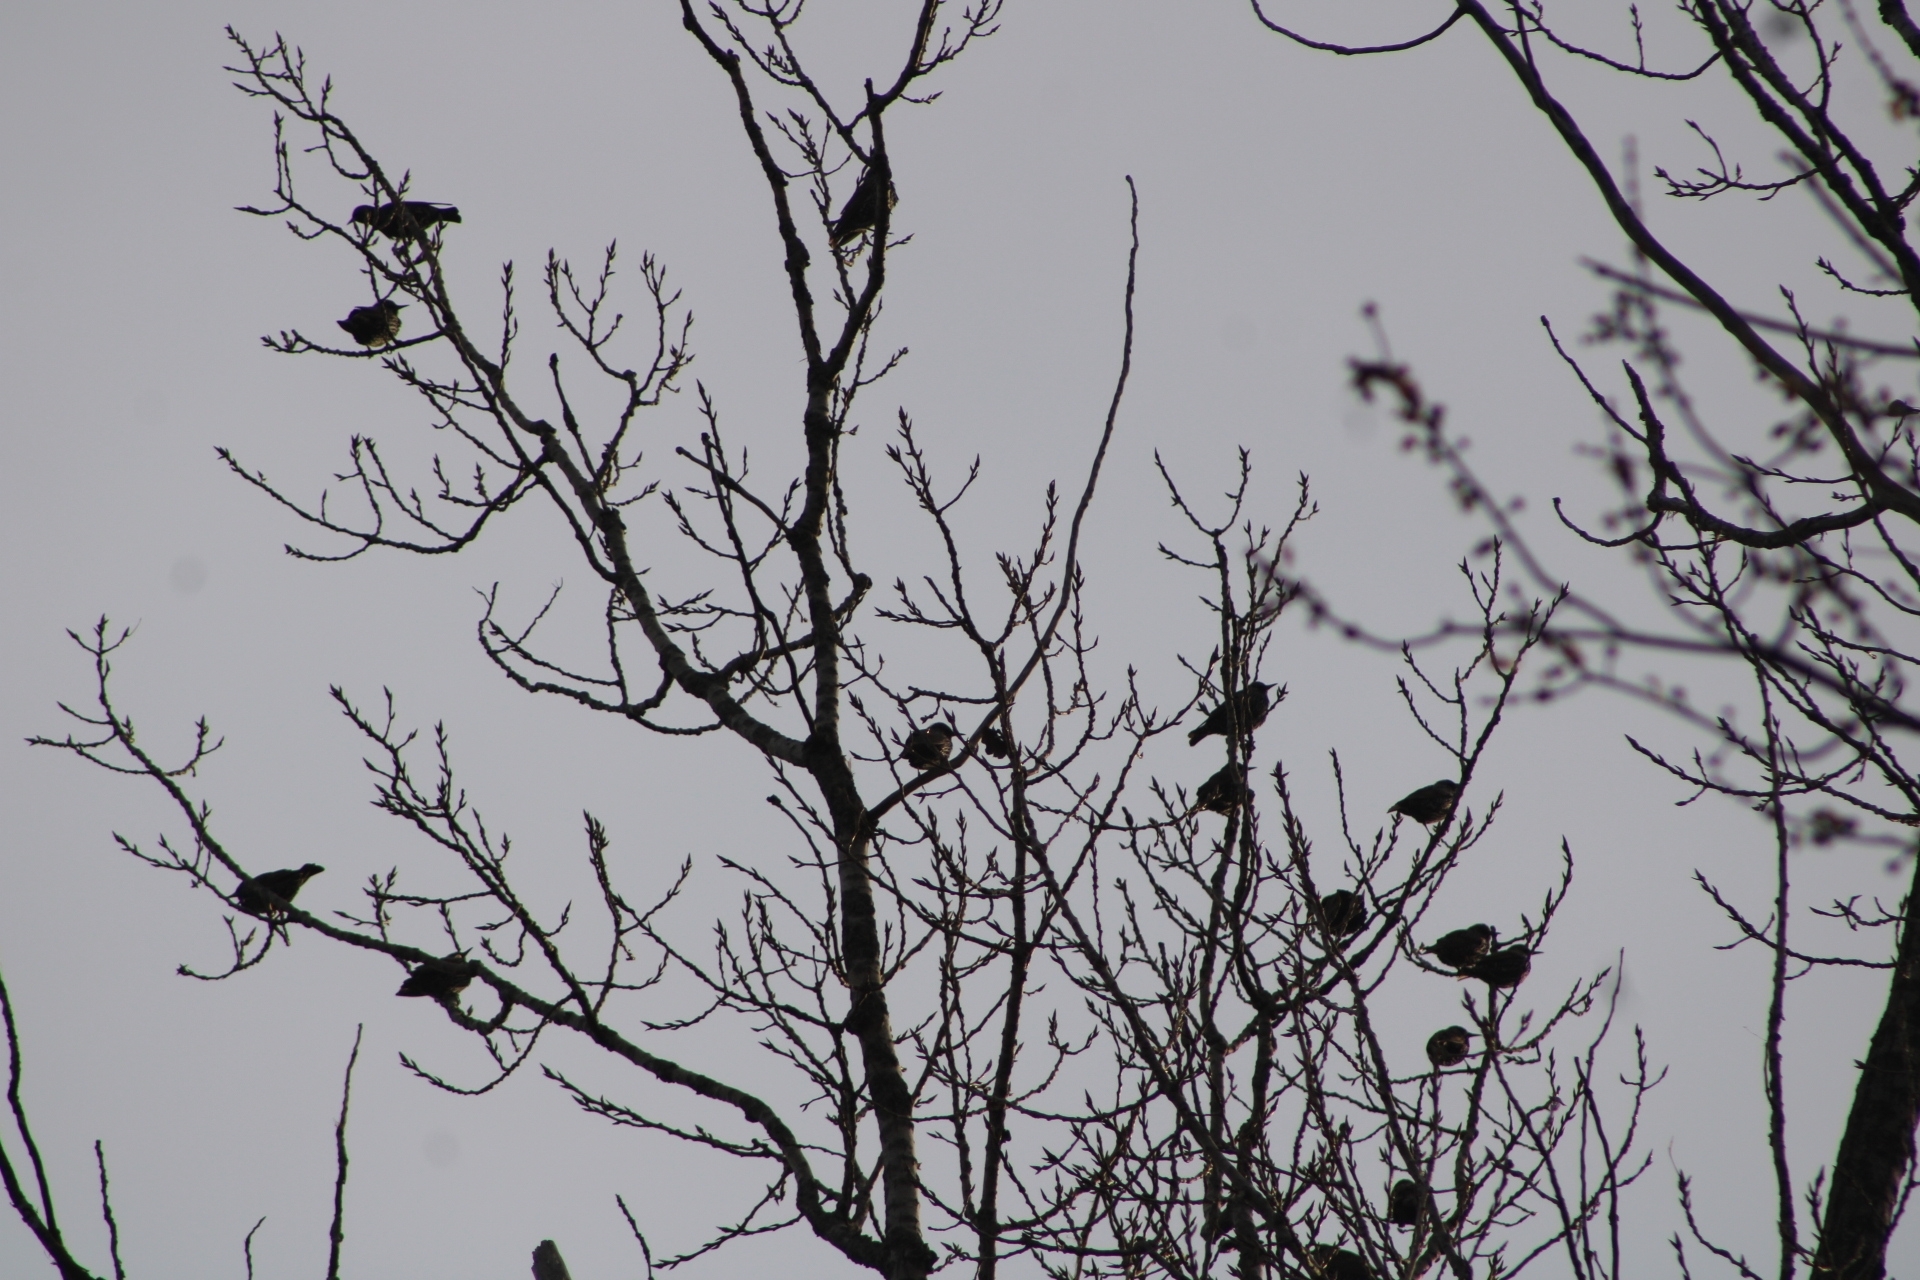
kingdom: Animalia
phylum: Chordata
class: Aves
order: Passeriformes
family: Sturnidae
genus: Sturnus
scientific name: Sturnus vulgaris
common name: Common starling
